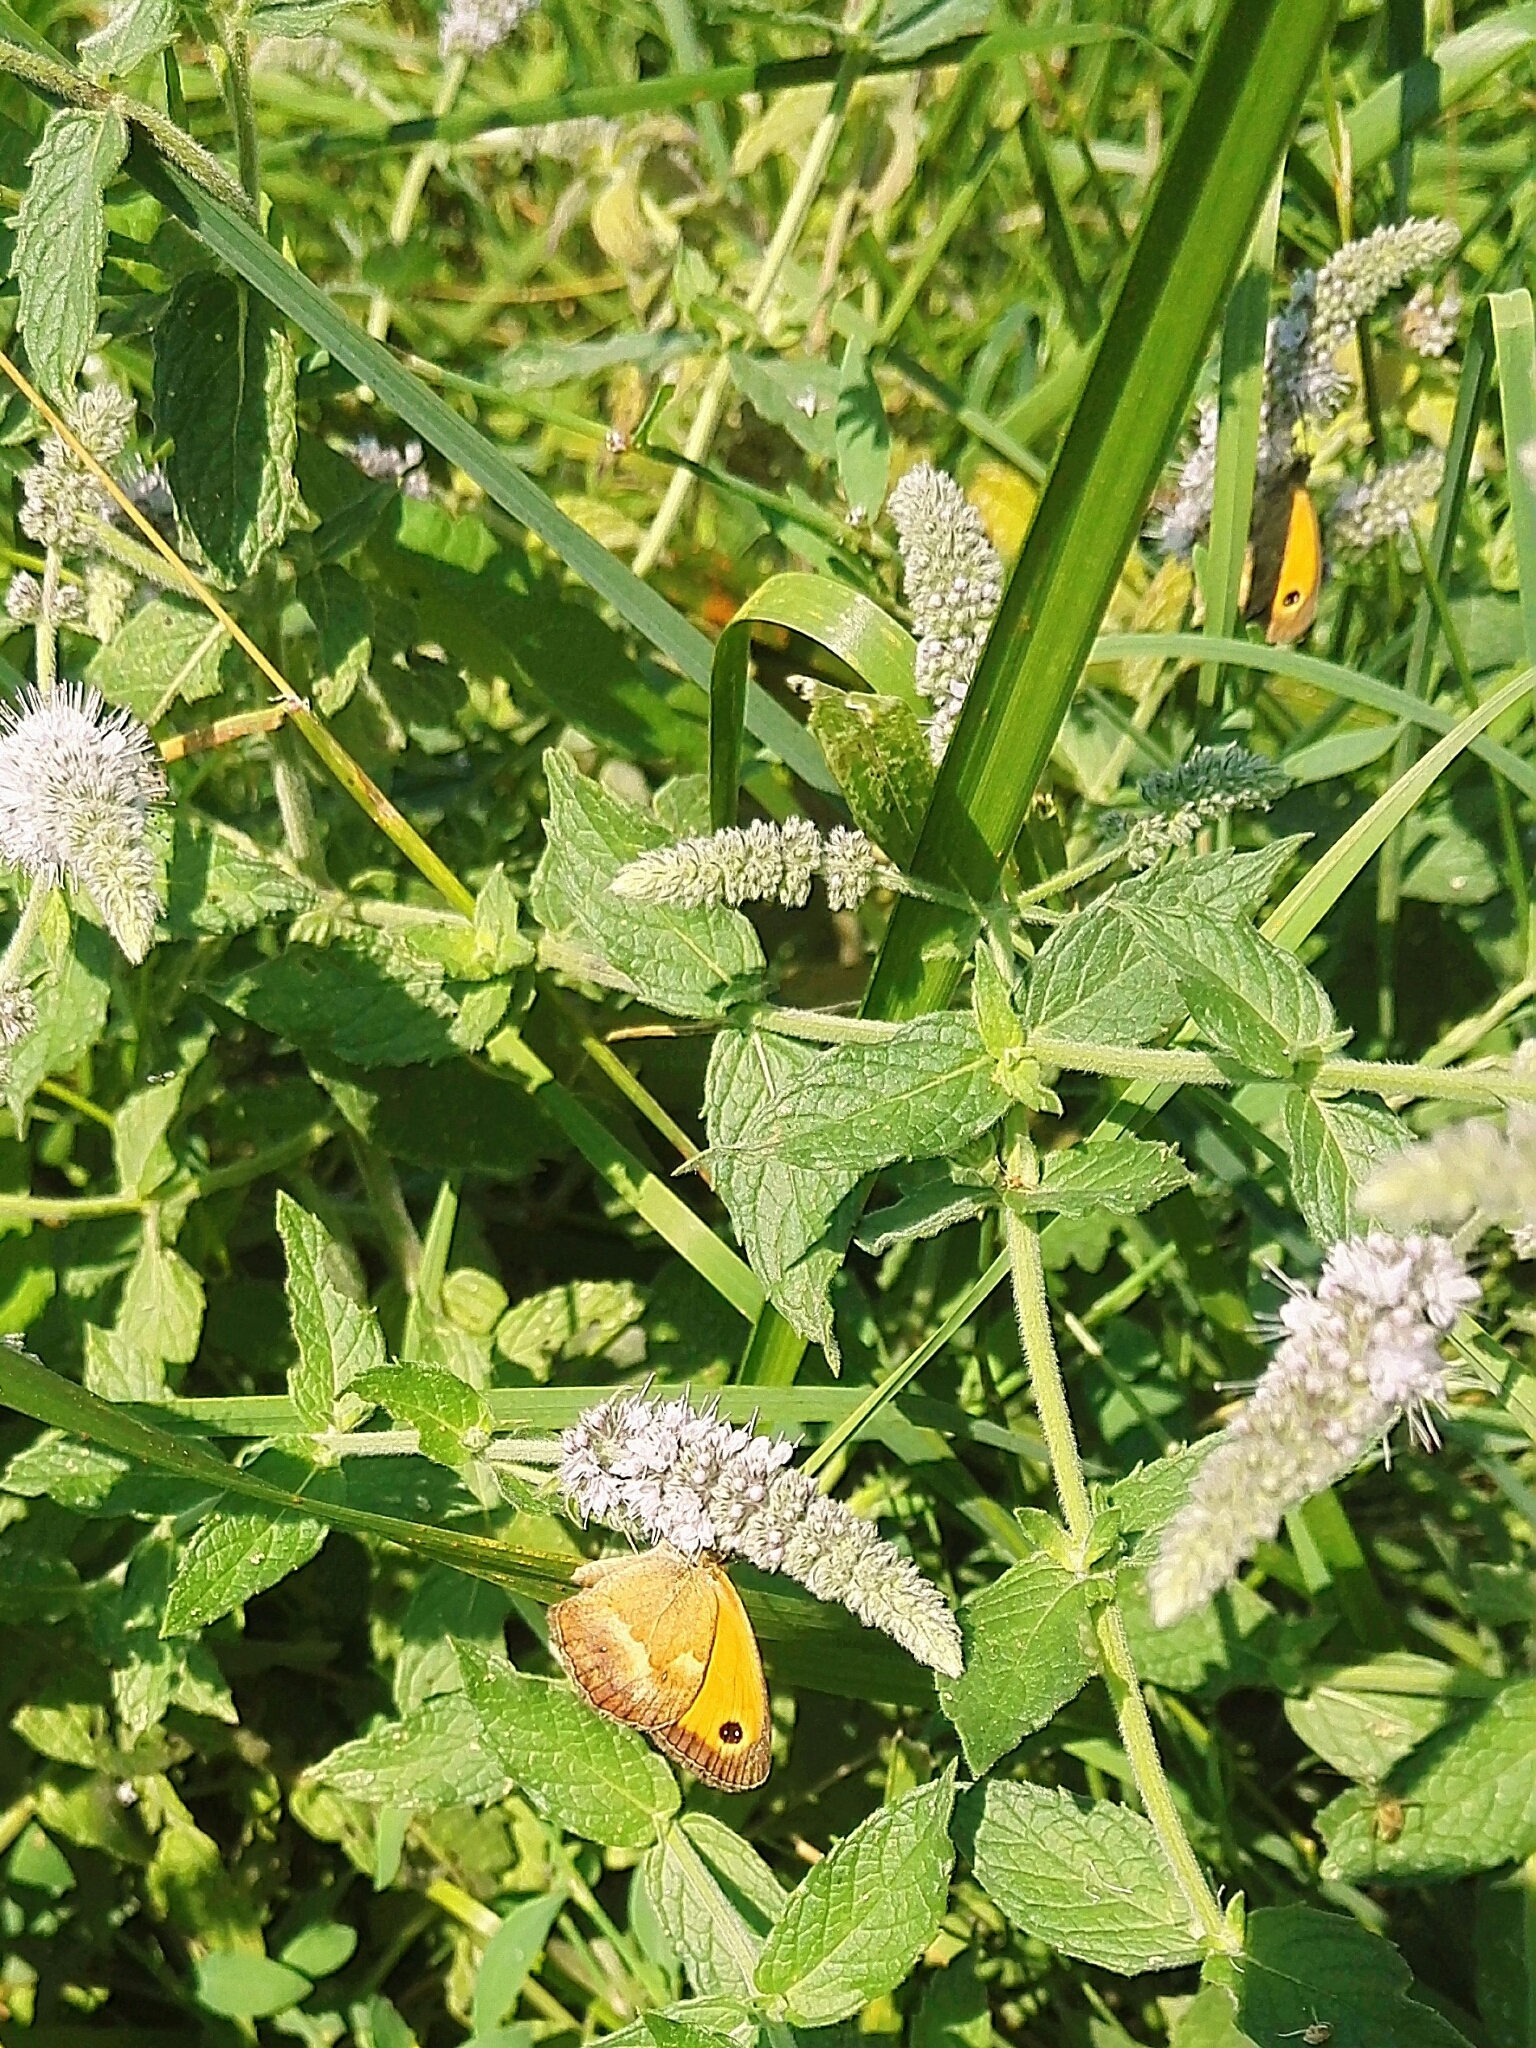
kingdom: Animalia
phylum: Arthropoda
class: Insecta
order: Lepidoptera
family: Nymphalidae
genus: Pyronia
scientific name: Pyronia tithonus
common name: Gatekeeper
